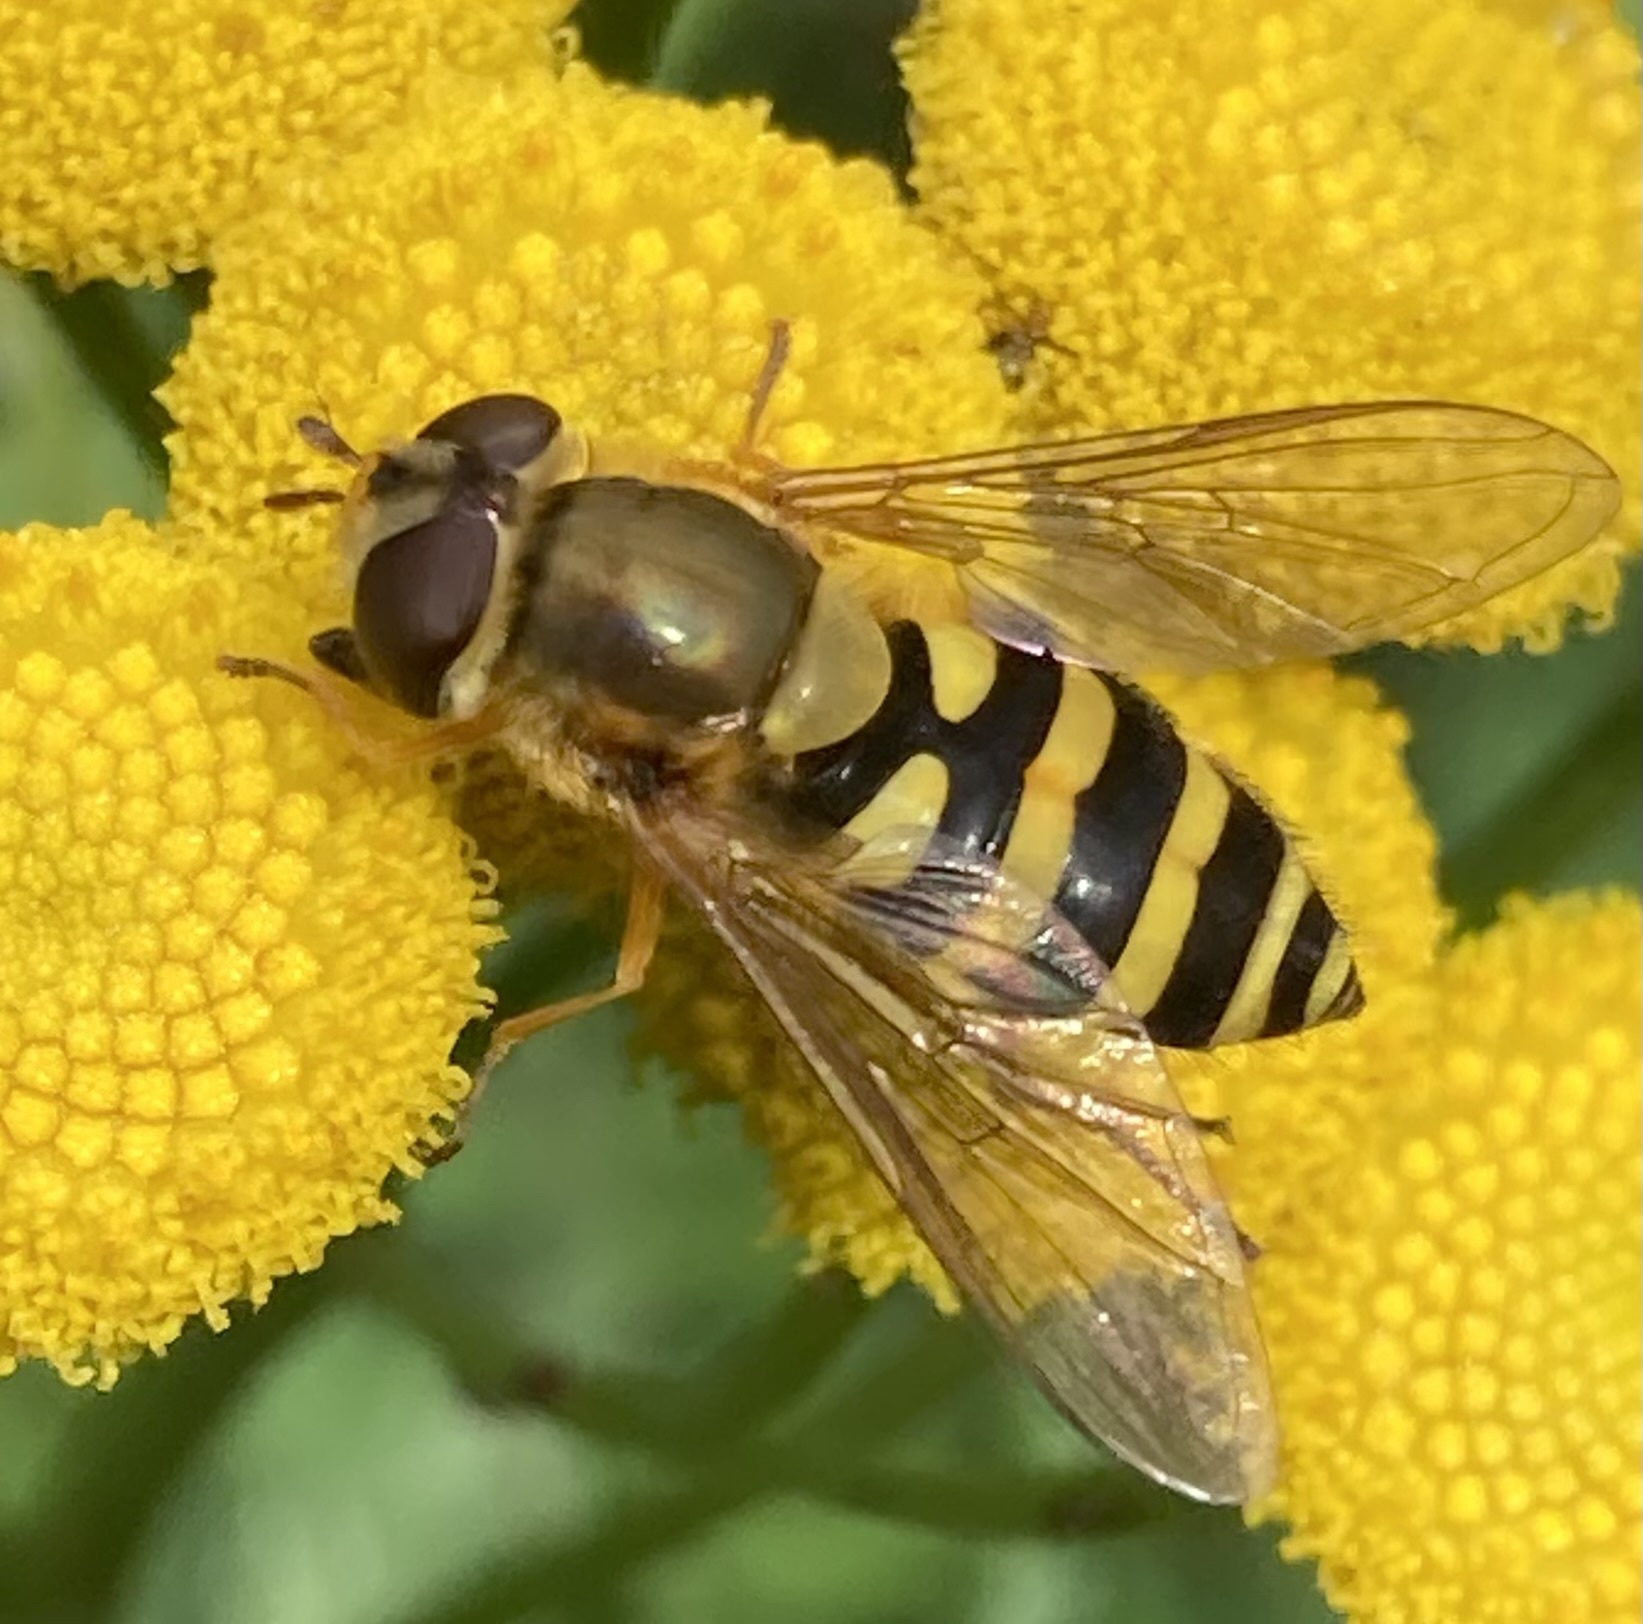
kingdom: Animalia
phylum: Arthropoda
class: Insecta
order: Diptera
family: Syrphidae
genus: Syrphus
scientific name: Syrphus
